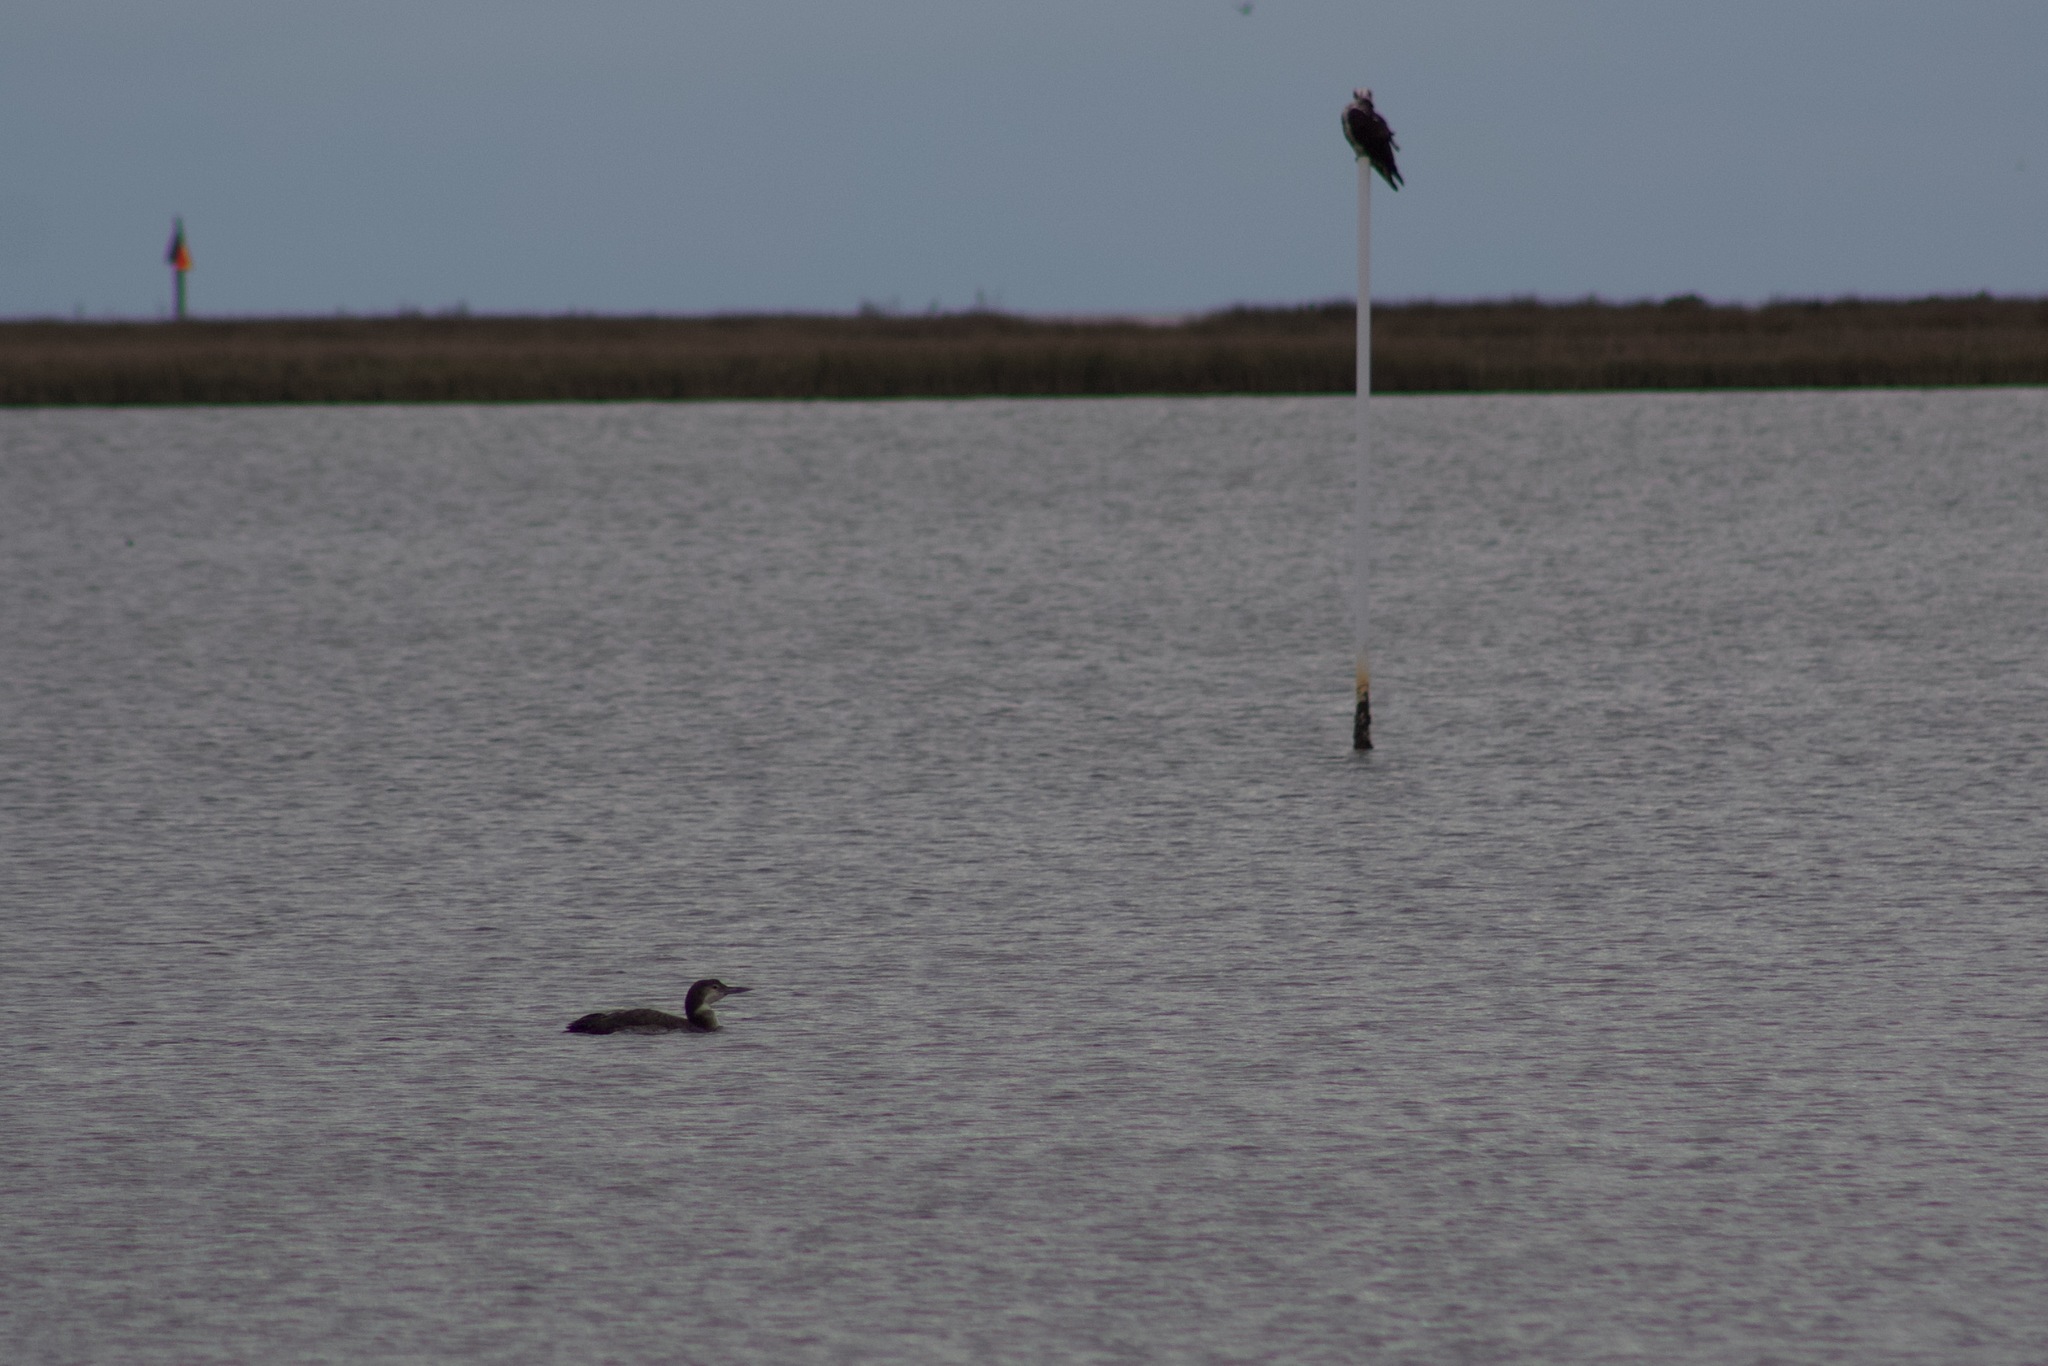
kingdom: Animalia
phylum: Chordata
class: Aves
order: Gaviiformes
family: Gaviidae
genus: Gavia
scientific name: Gavia immer
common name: Common loon
